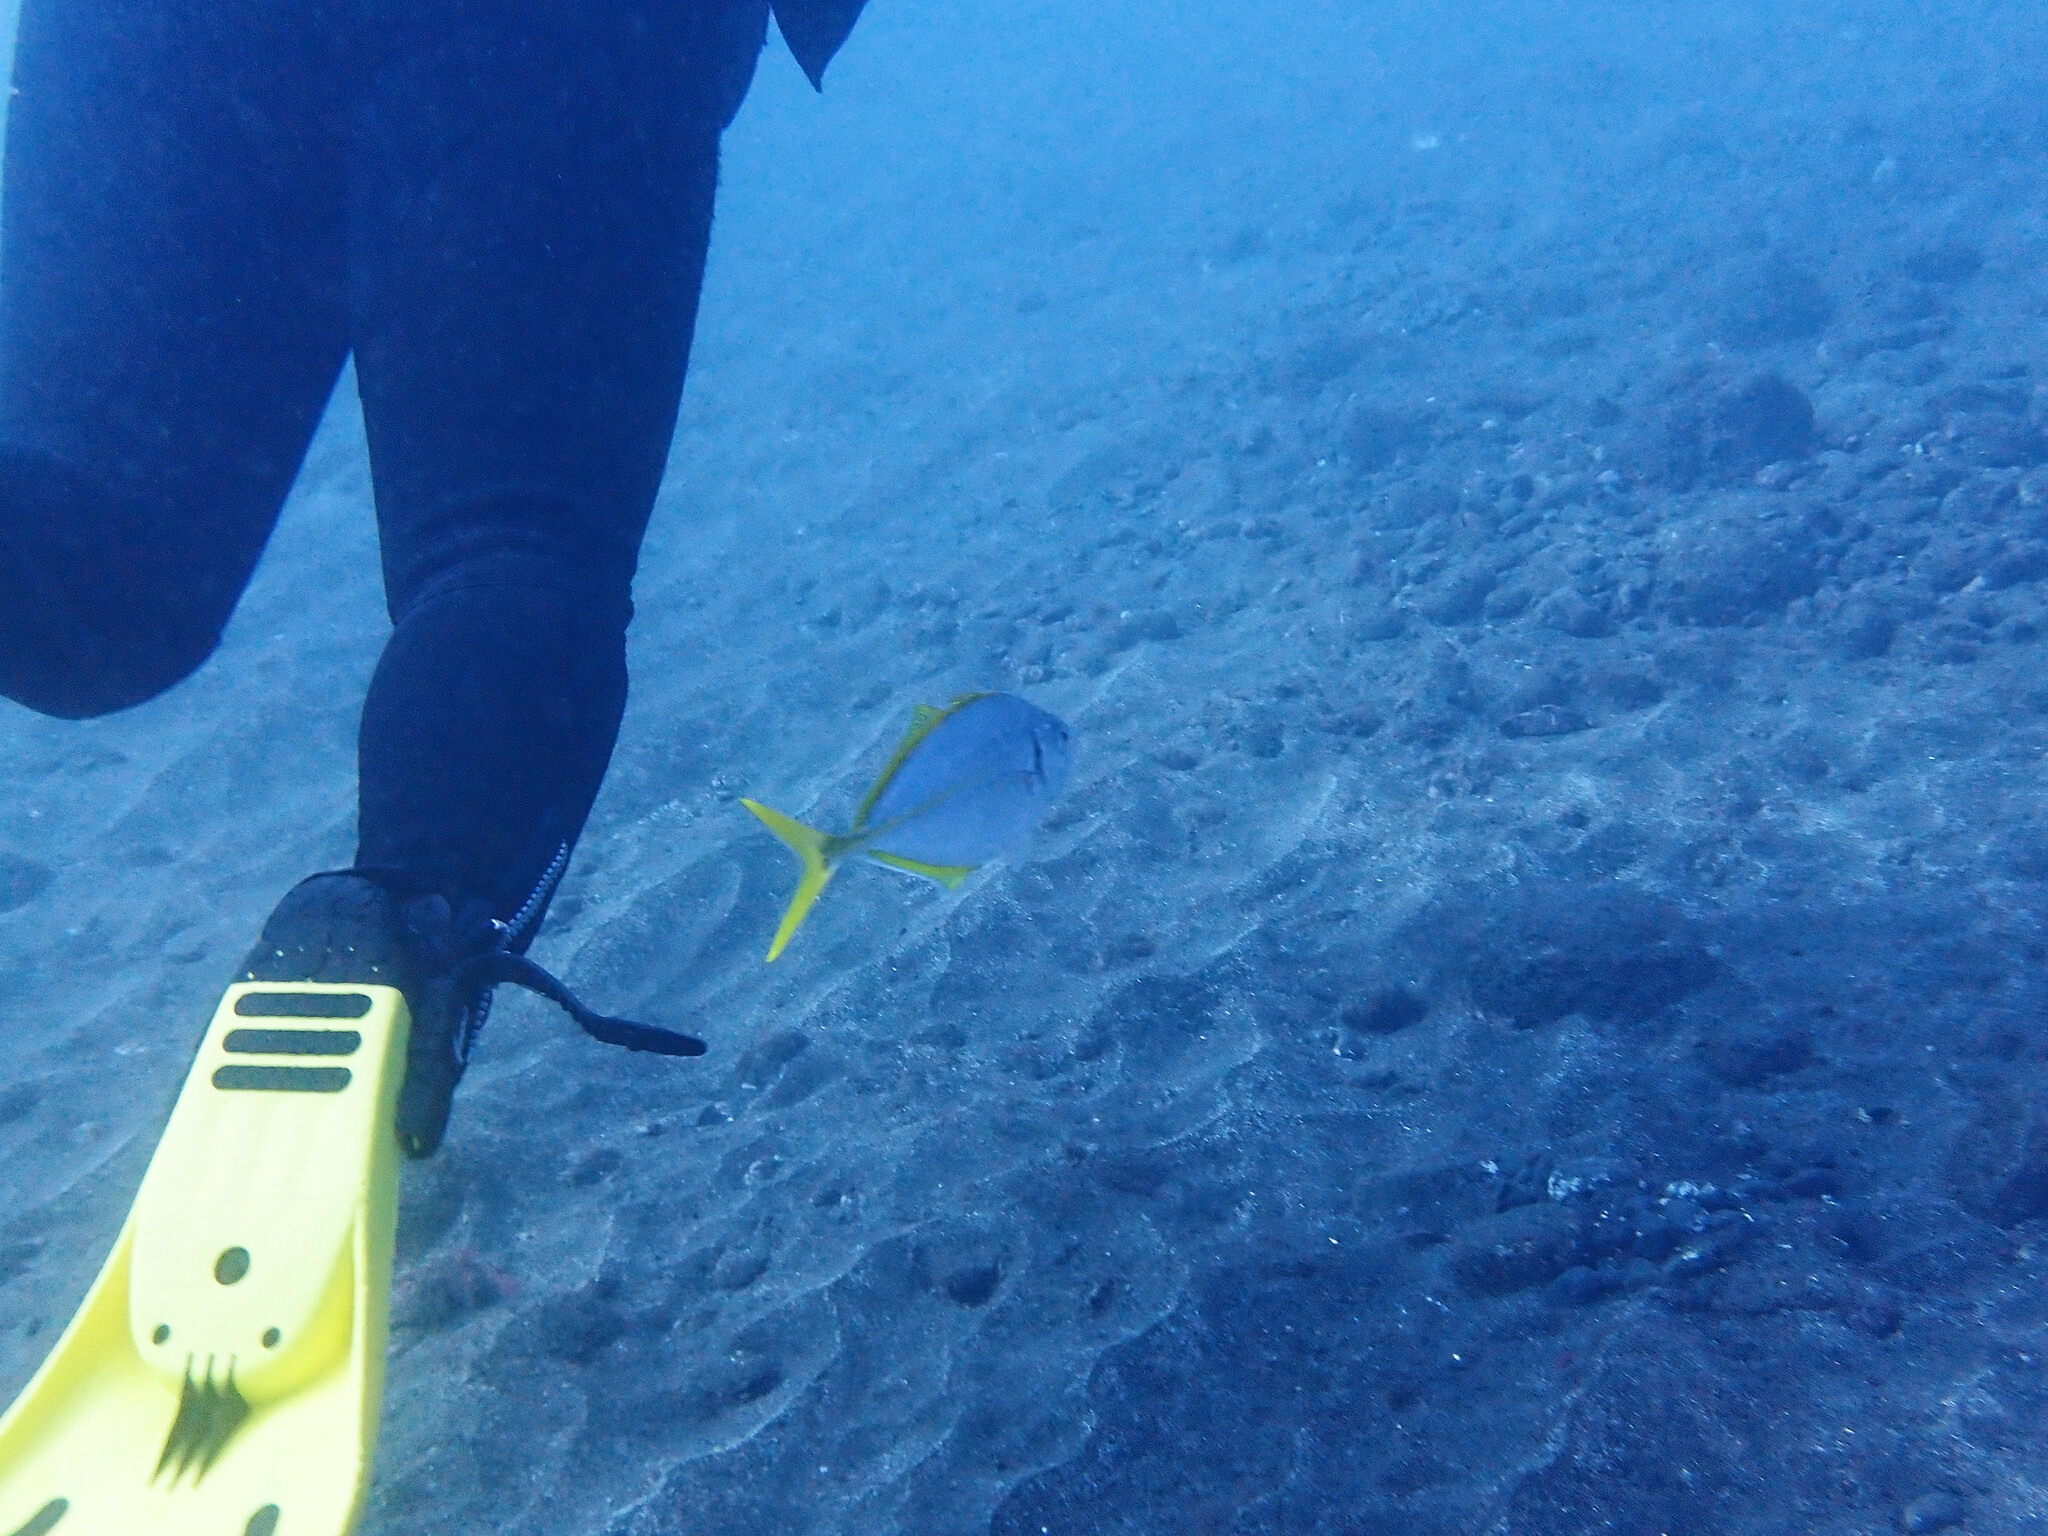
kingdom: Animalia
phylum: Chordata
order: Perciformes
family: Carangidae
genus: Pseudocaranx
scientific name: Pseudocaranx dentex
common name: White trevally
